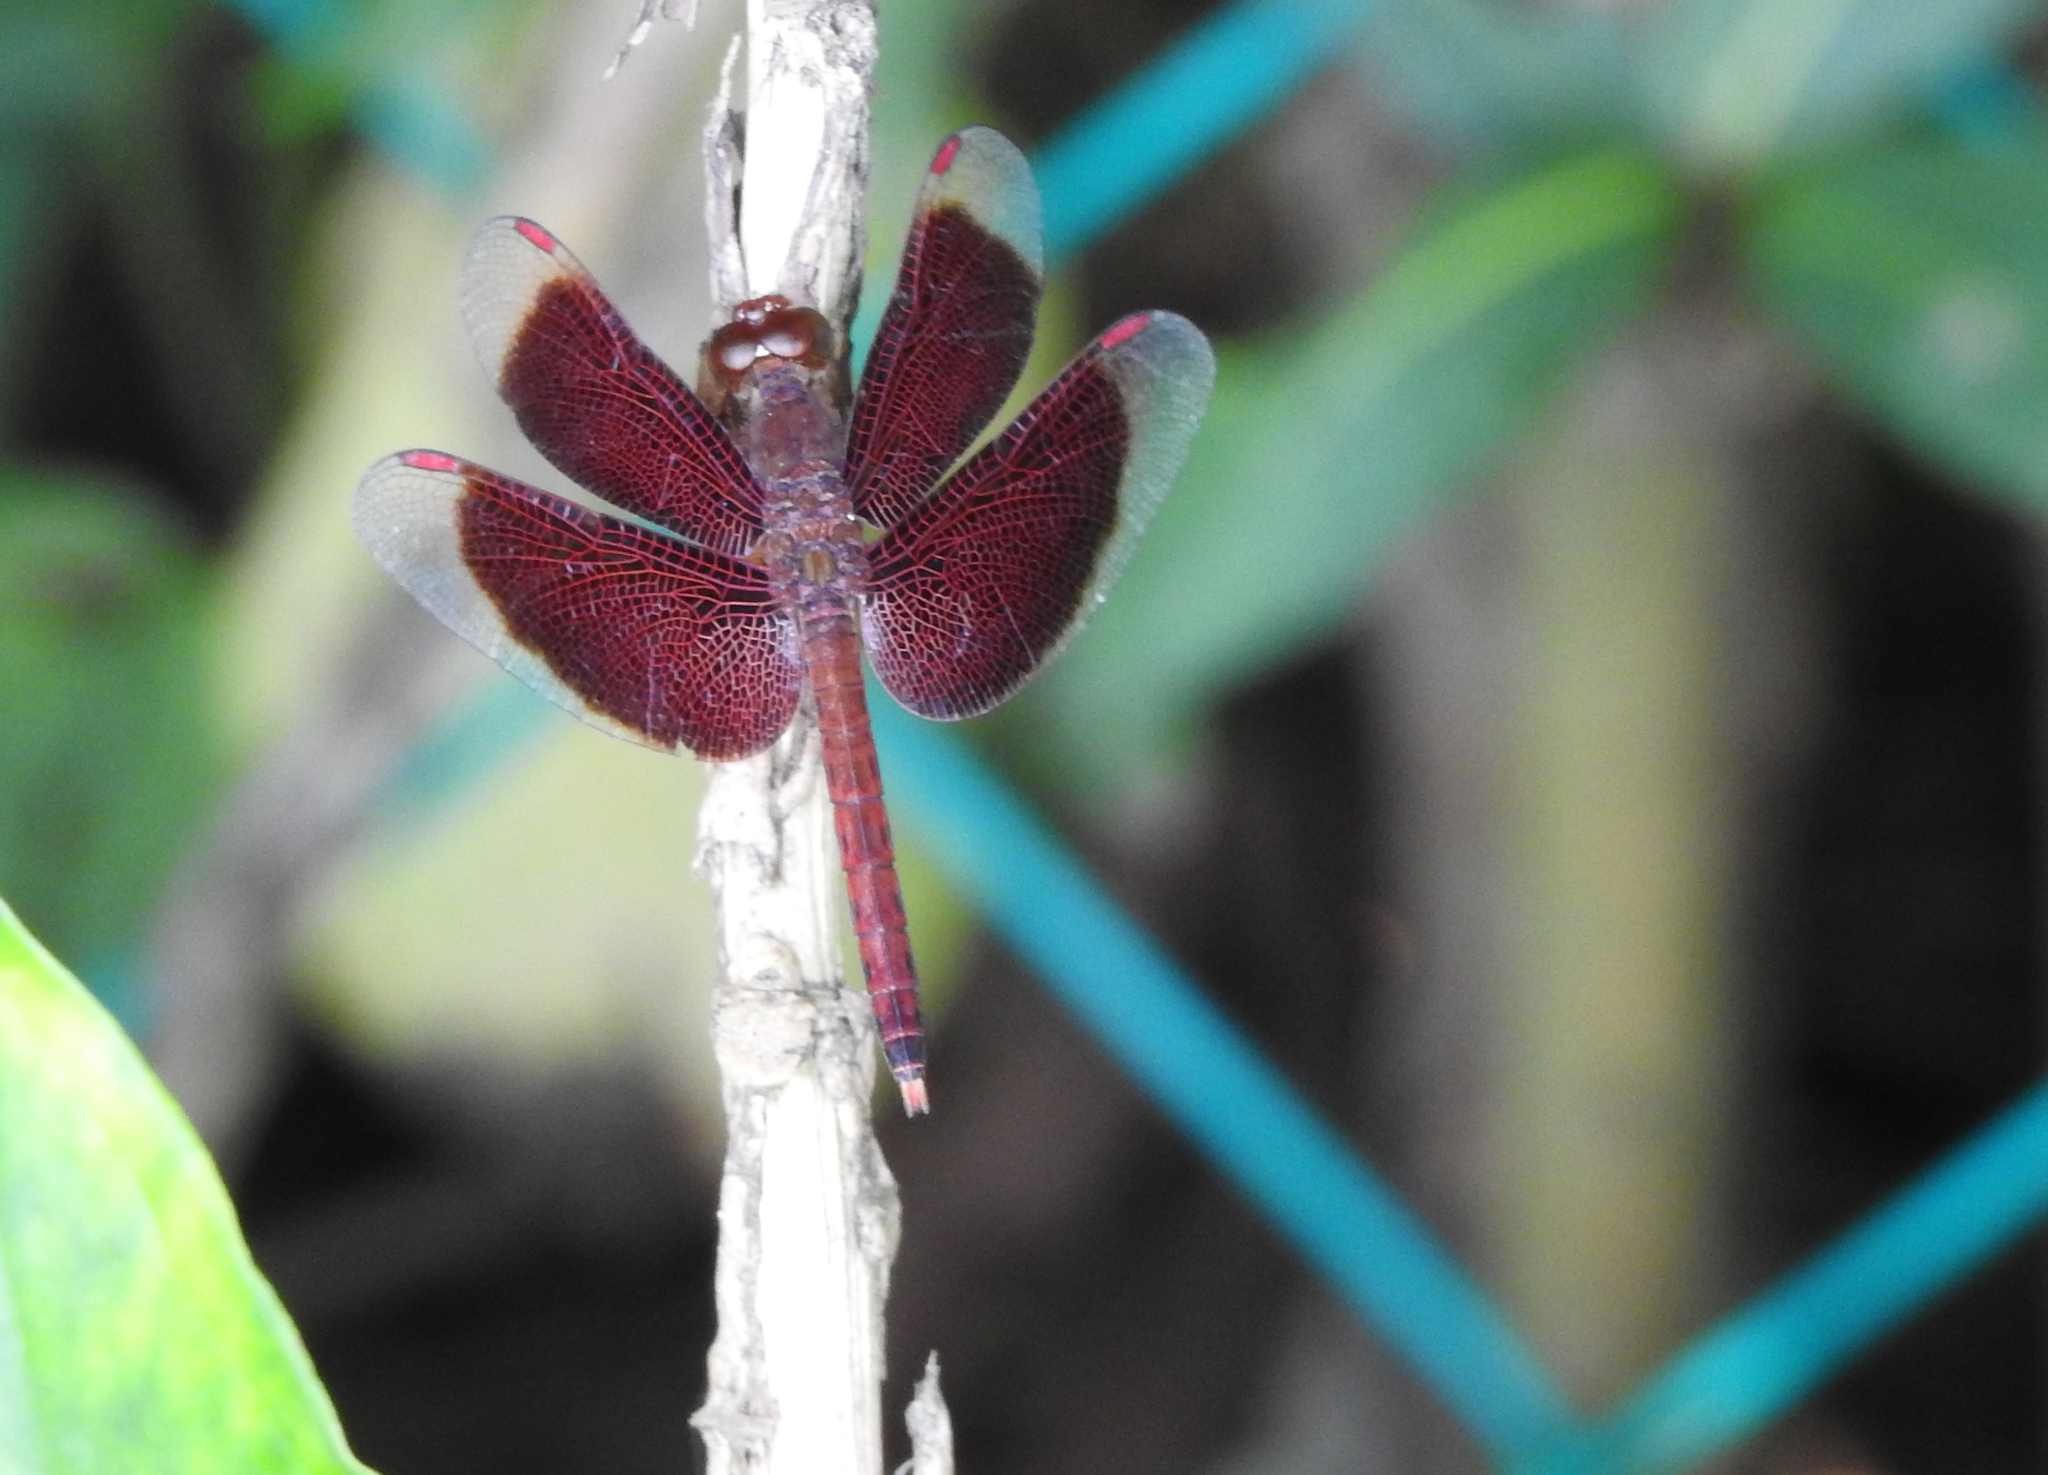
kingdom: Animalia
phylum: Arthropoda
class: Insecta
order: Odonata
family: Libellulidae
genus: Neurothemis
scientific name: Neurothemis fluctuans
